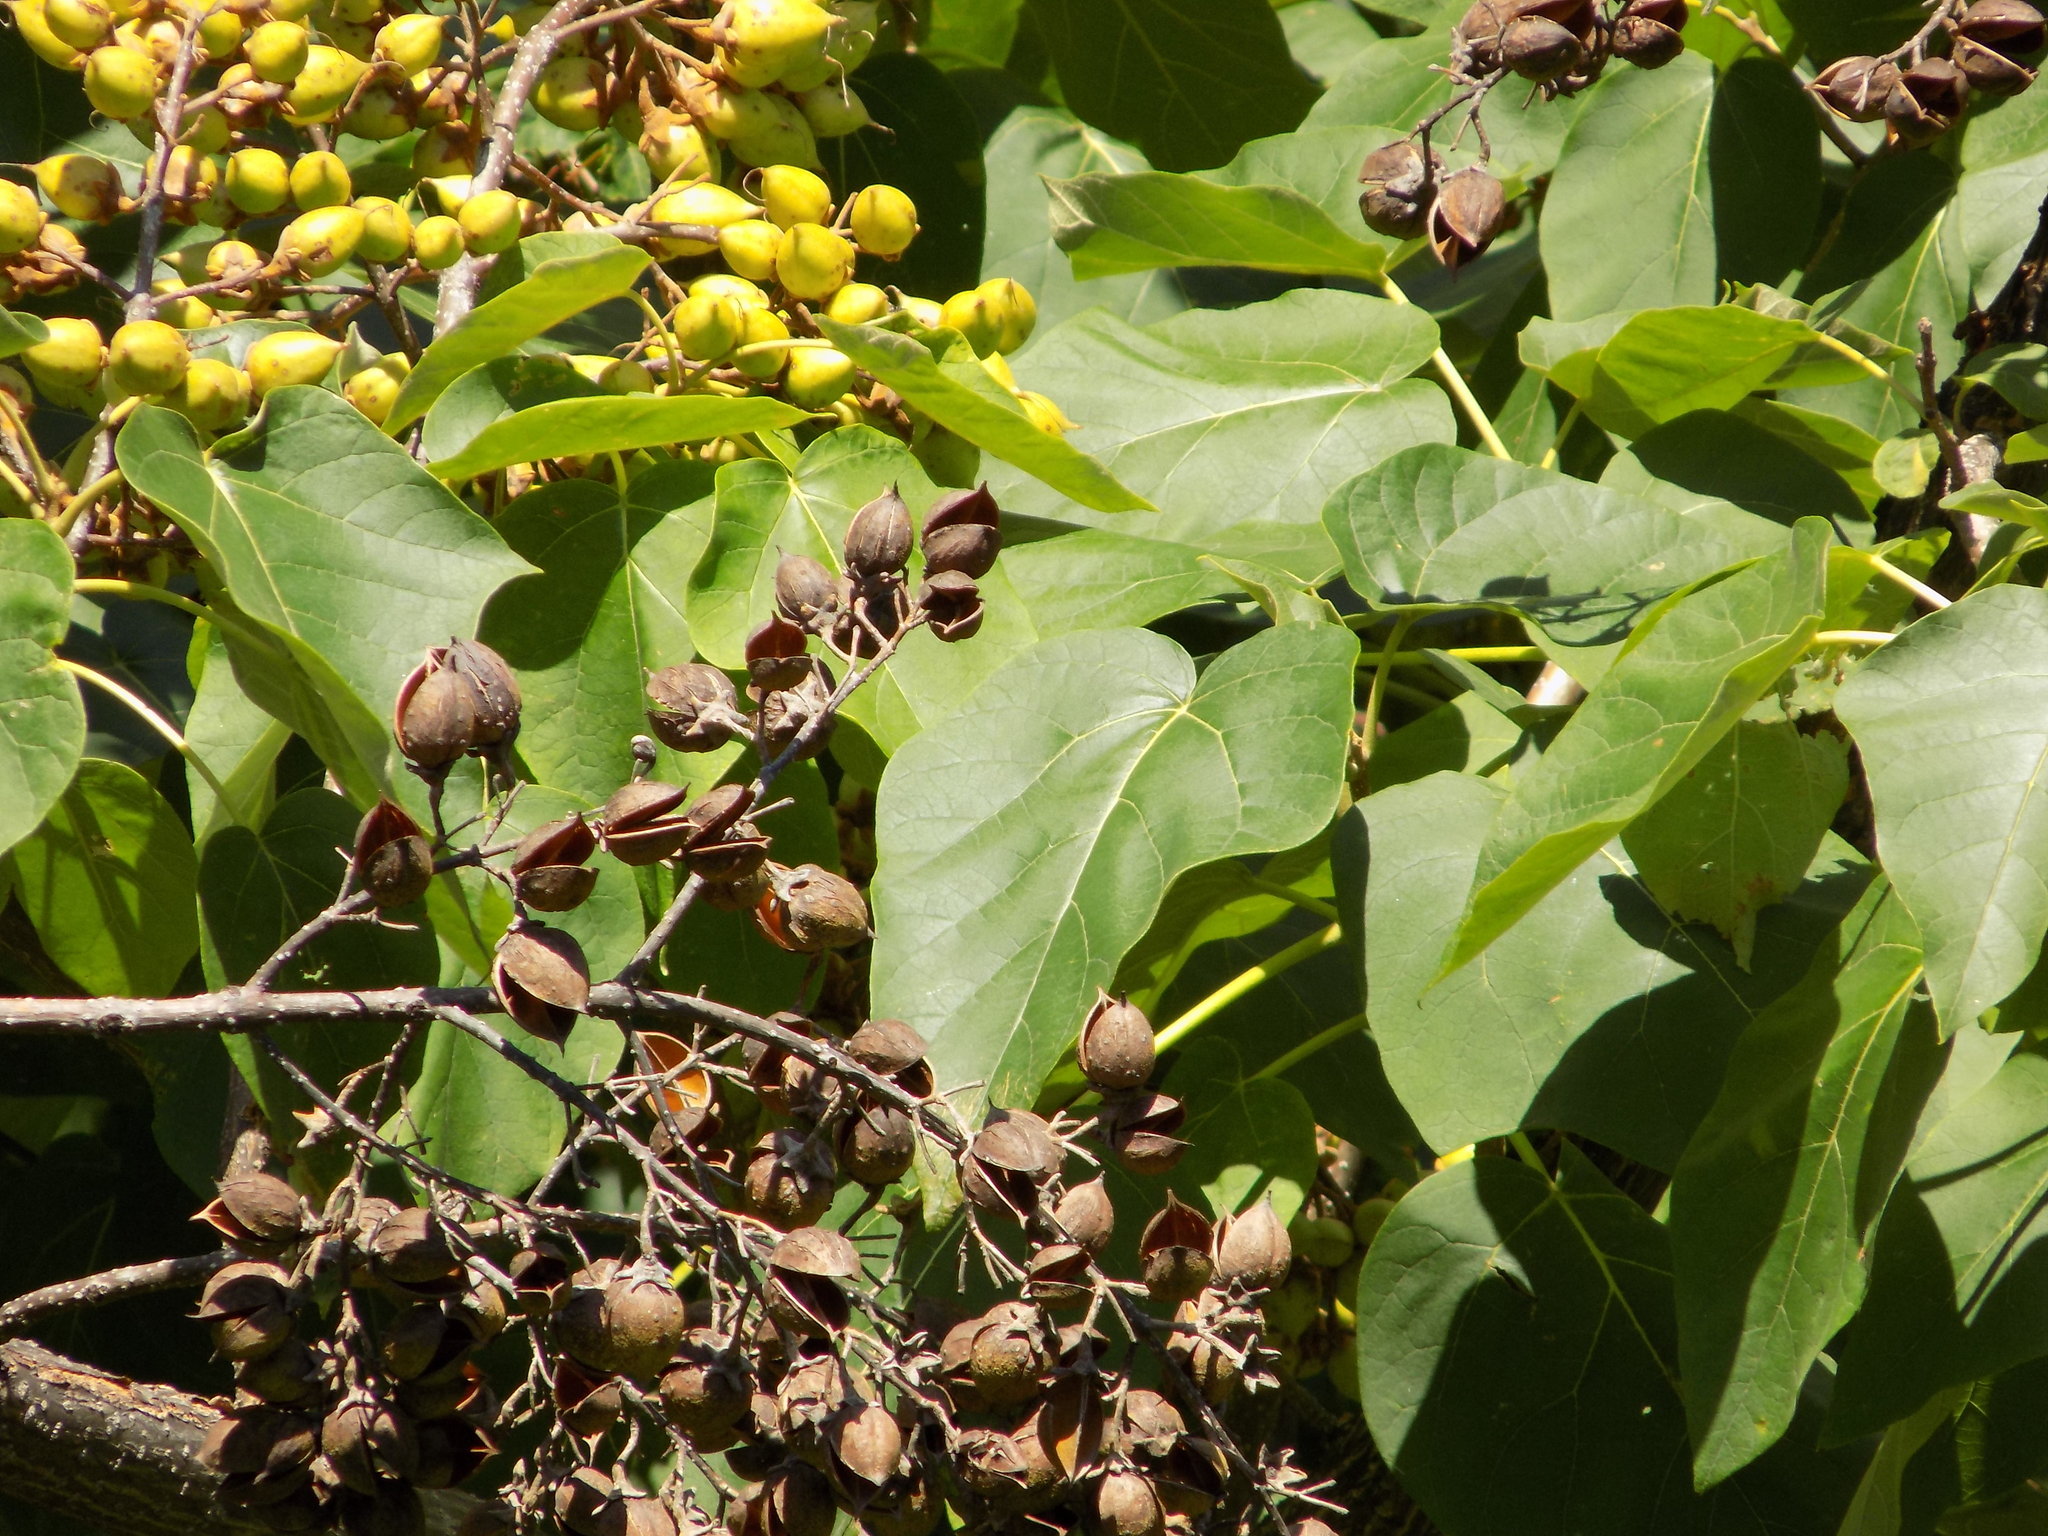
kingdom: Plantae
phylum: Tracheophyta
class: Magnoliopsida
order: Lamiales
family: Paulowniaceae
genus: Paulownia
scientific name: Paulownia tomentosa
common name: Foxglove-tree
